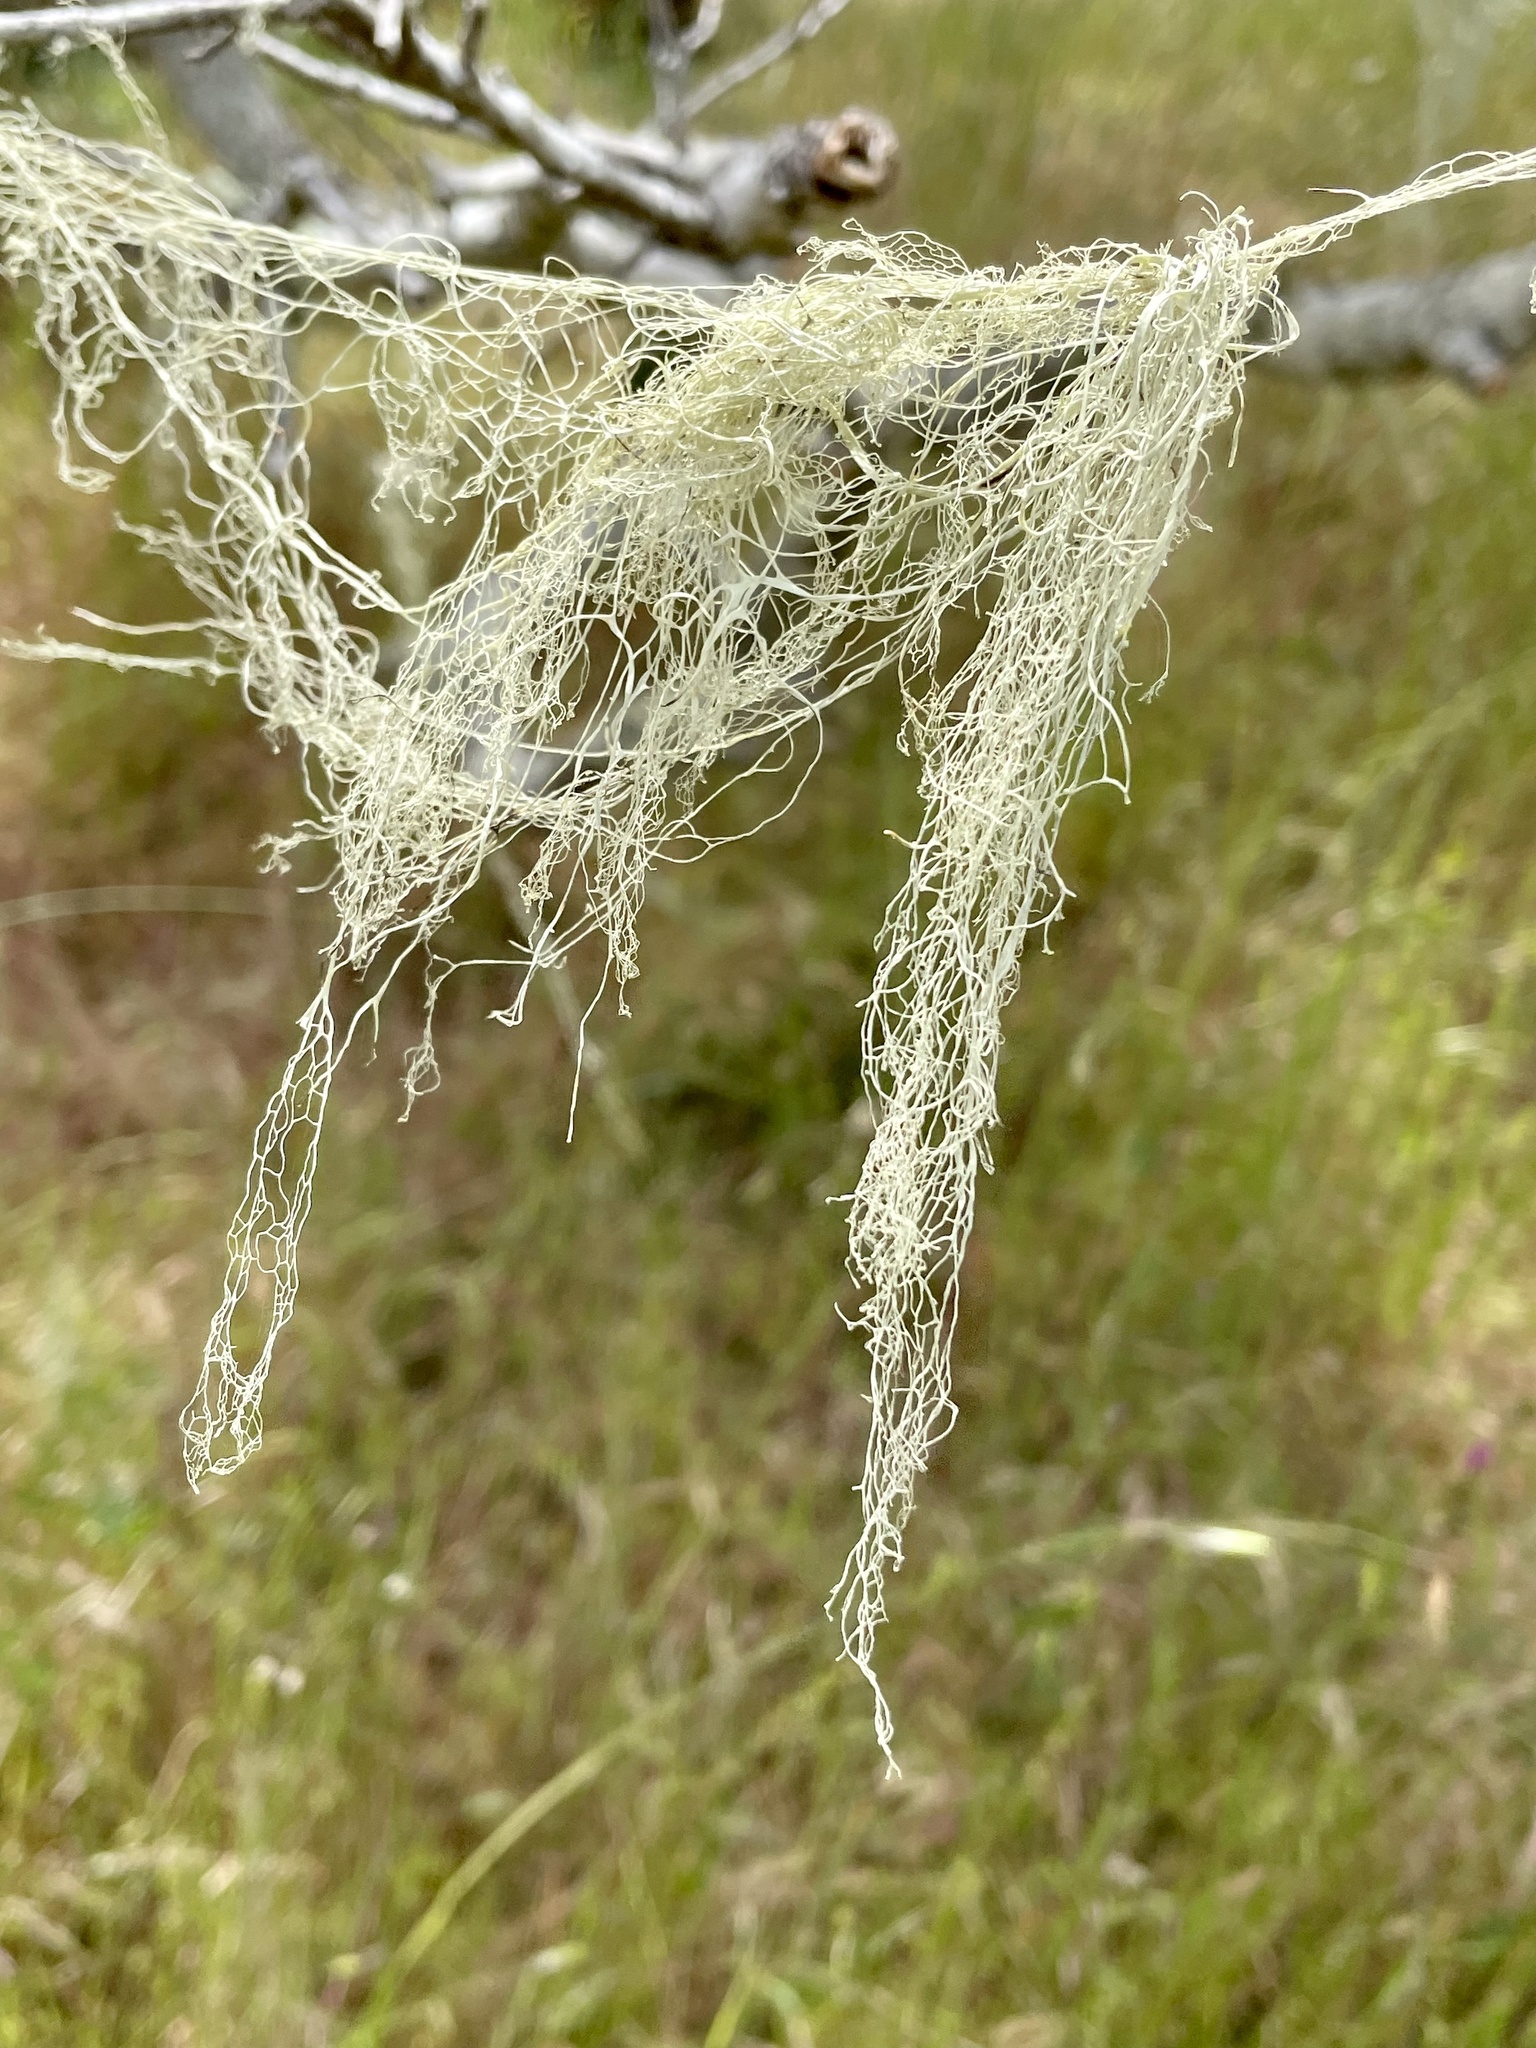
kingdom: Fungi
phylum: Ascomycota
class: Lecanoromycetes
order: Lecanorales
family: Ramalinaceae
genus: Ramalina
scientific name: Ramalina menziesii
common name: Lace lichen
